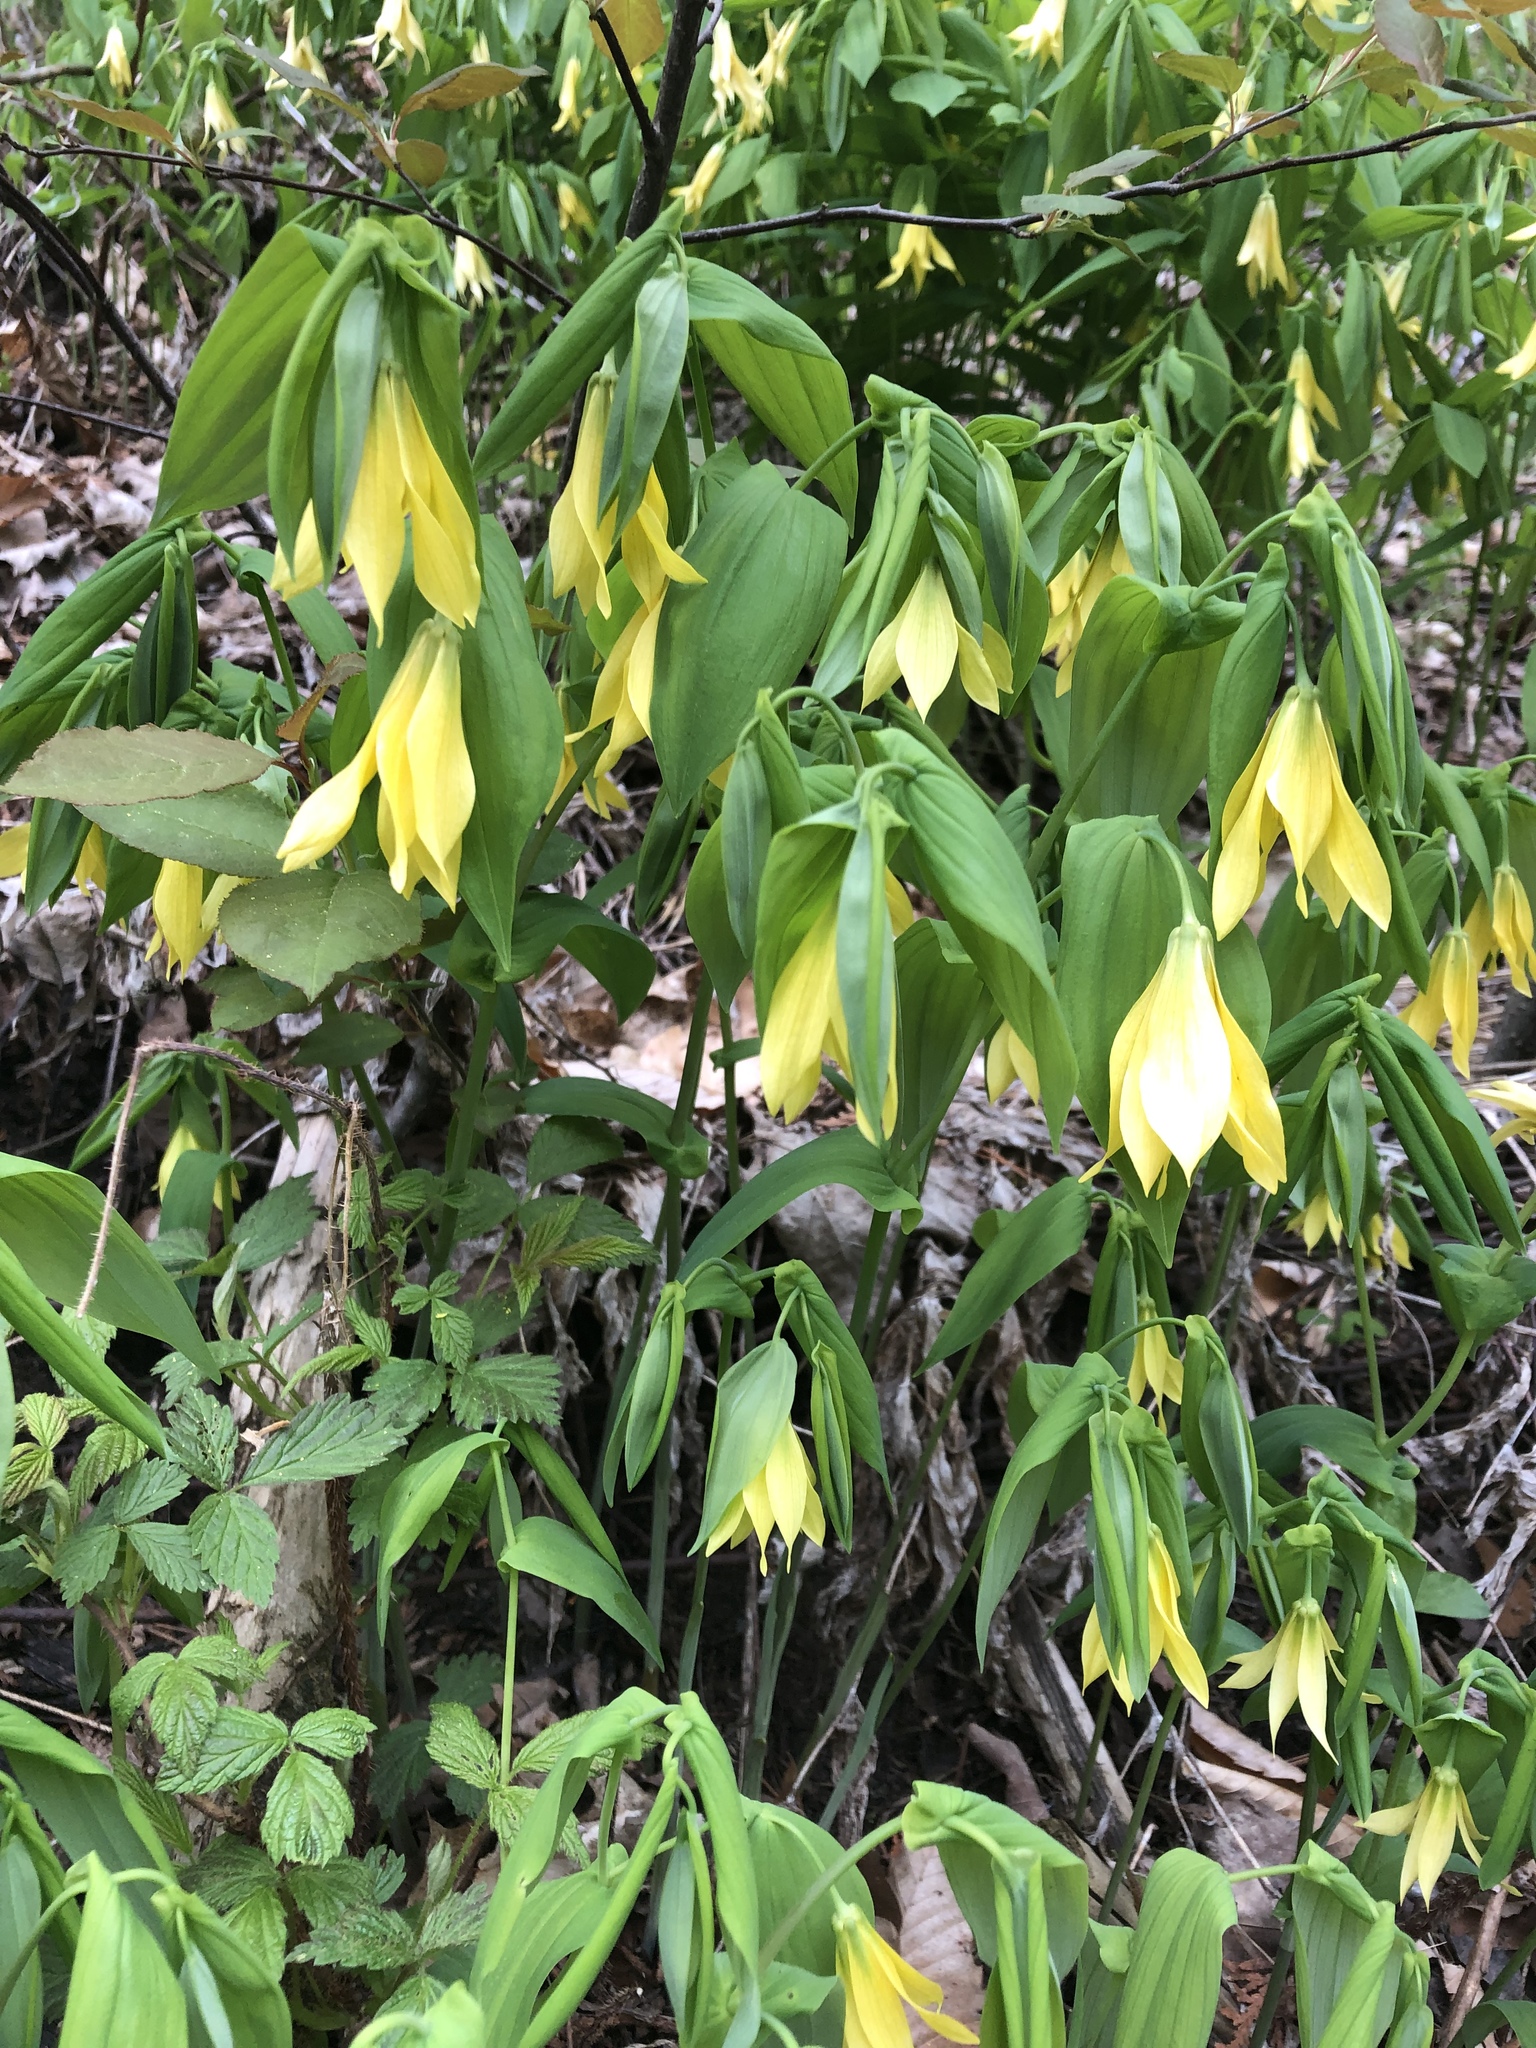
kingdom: Plantae
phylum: Tracheophyta
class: Liliopsida
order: Liliales
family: Colchicaceae
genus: Uvularia
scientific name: Uvularia grandiflora
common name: Bellwort
